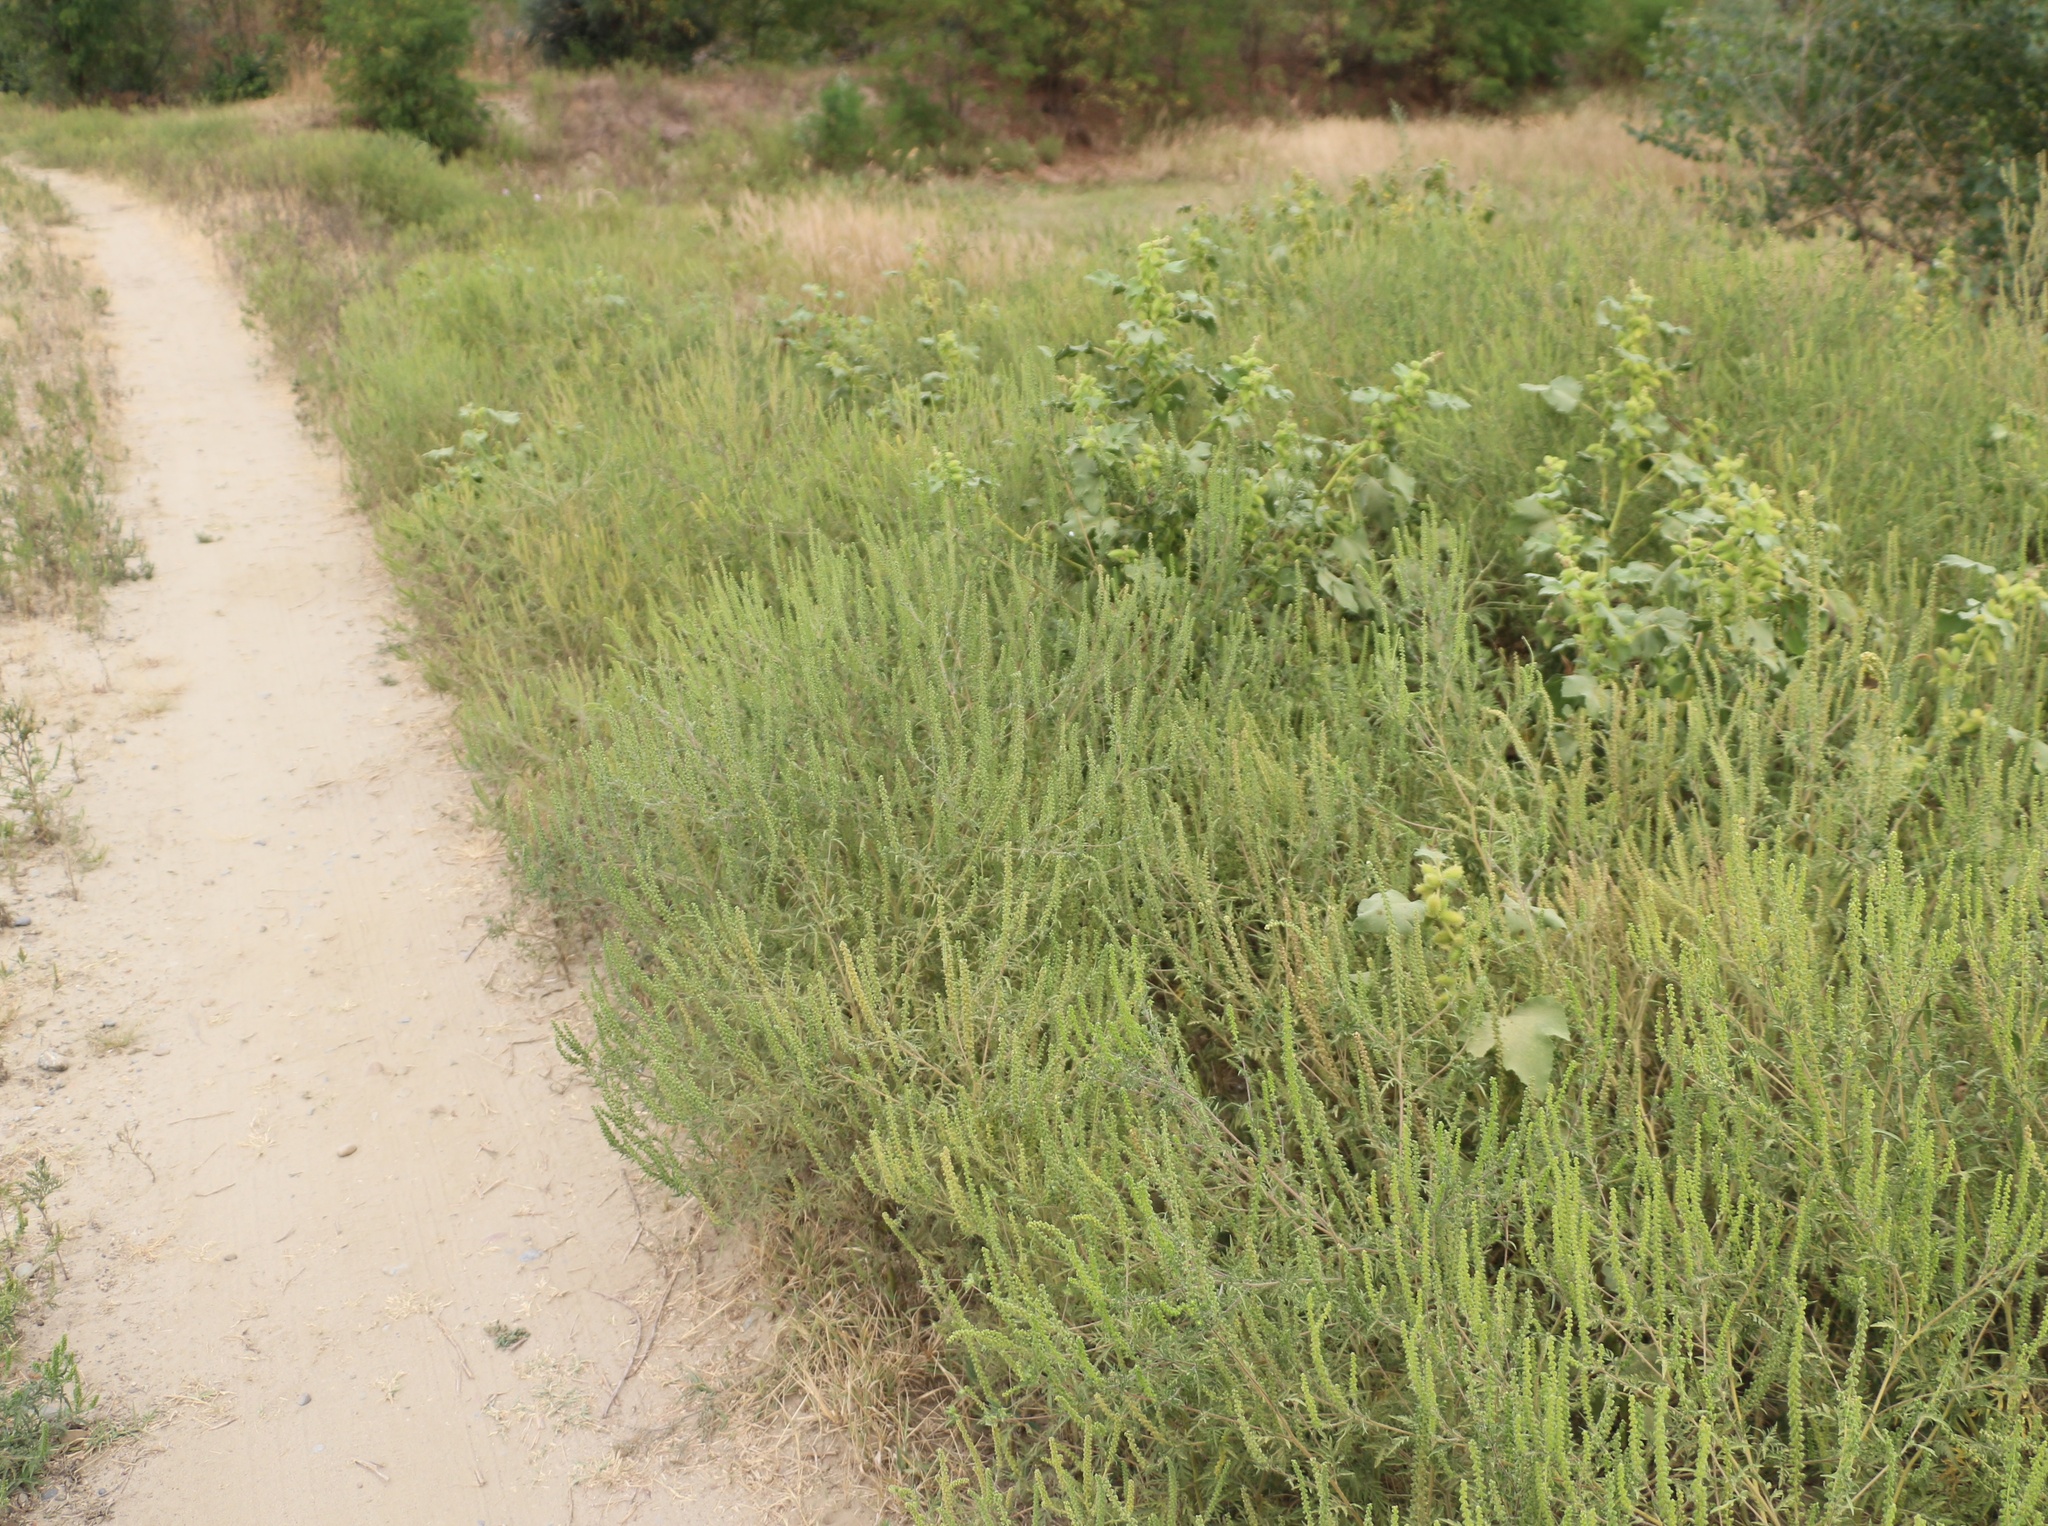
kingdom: Plantae
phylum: Tracheophyta
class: Magnoliopsida
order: Asterales
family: Asteraceae
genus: Ambrosia
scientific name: Ambrosia artemisiifolia
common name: Annual ragweed
